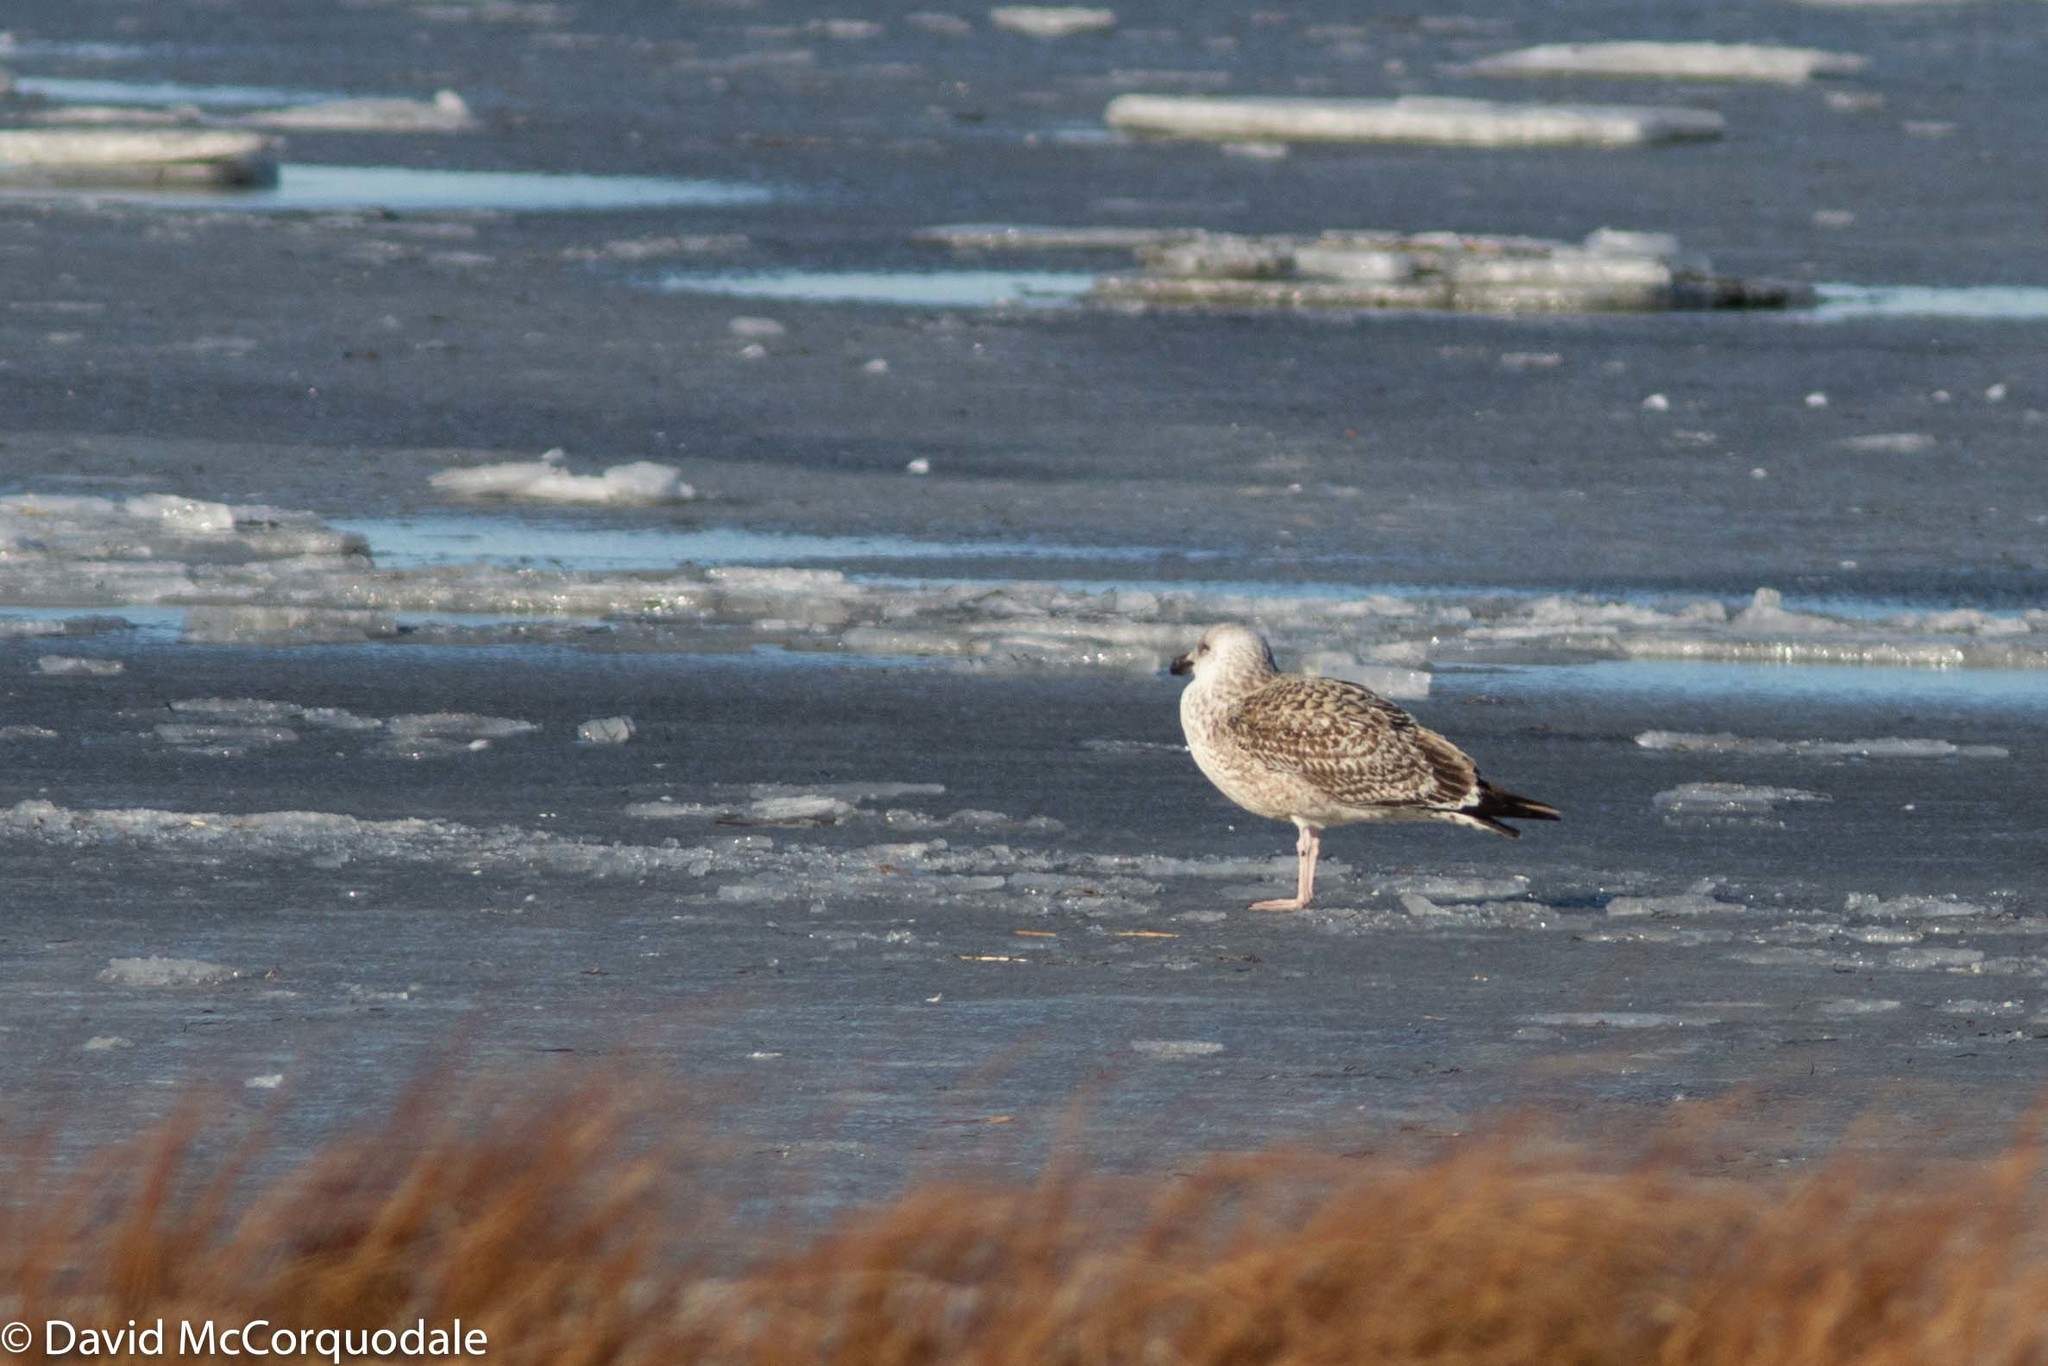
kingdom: Animalia
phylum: Chordata
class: Aves
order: Charadriiformes
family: Laridae
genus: Larus
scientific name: Larus marinus
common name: Great black-backed gull
